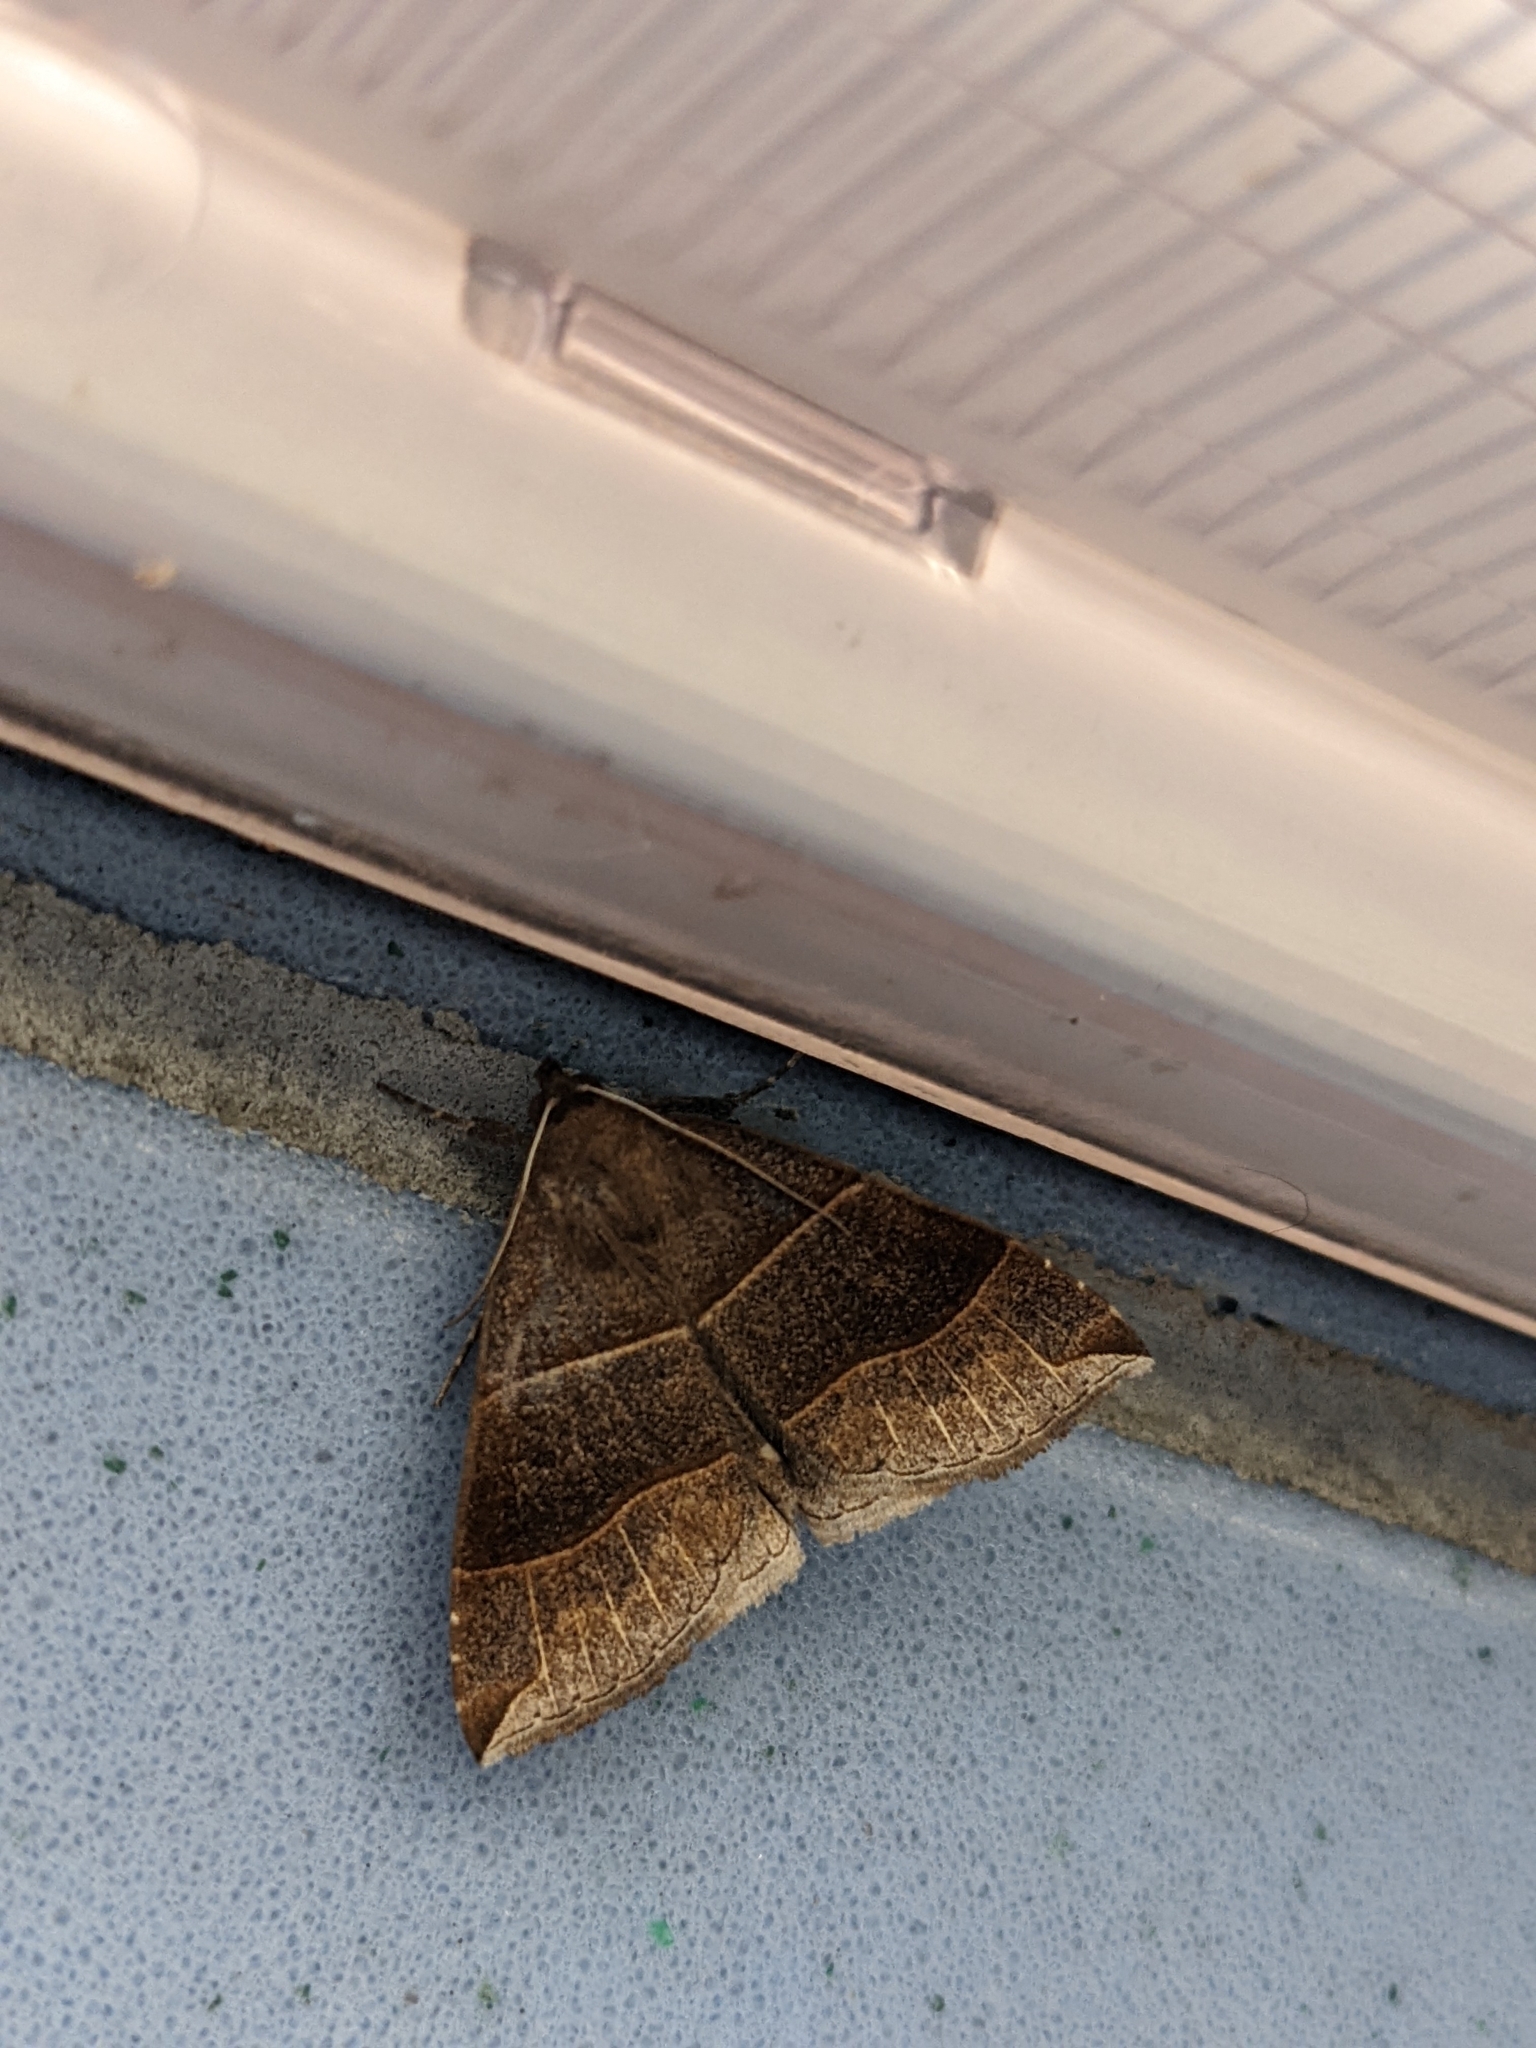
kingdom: Animalia
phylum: Arthropoda
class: Insecta
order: Lepidoptera
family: Erebidae
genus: Parallelia
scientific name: Parallelia bistriaris
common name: Maple looper moth
